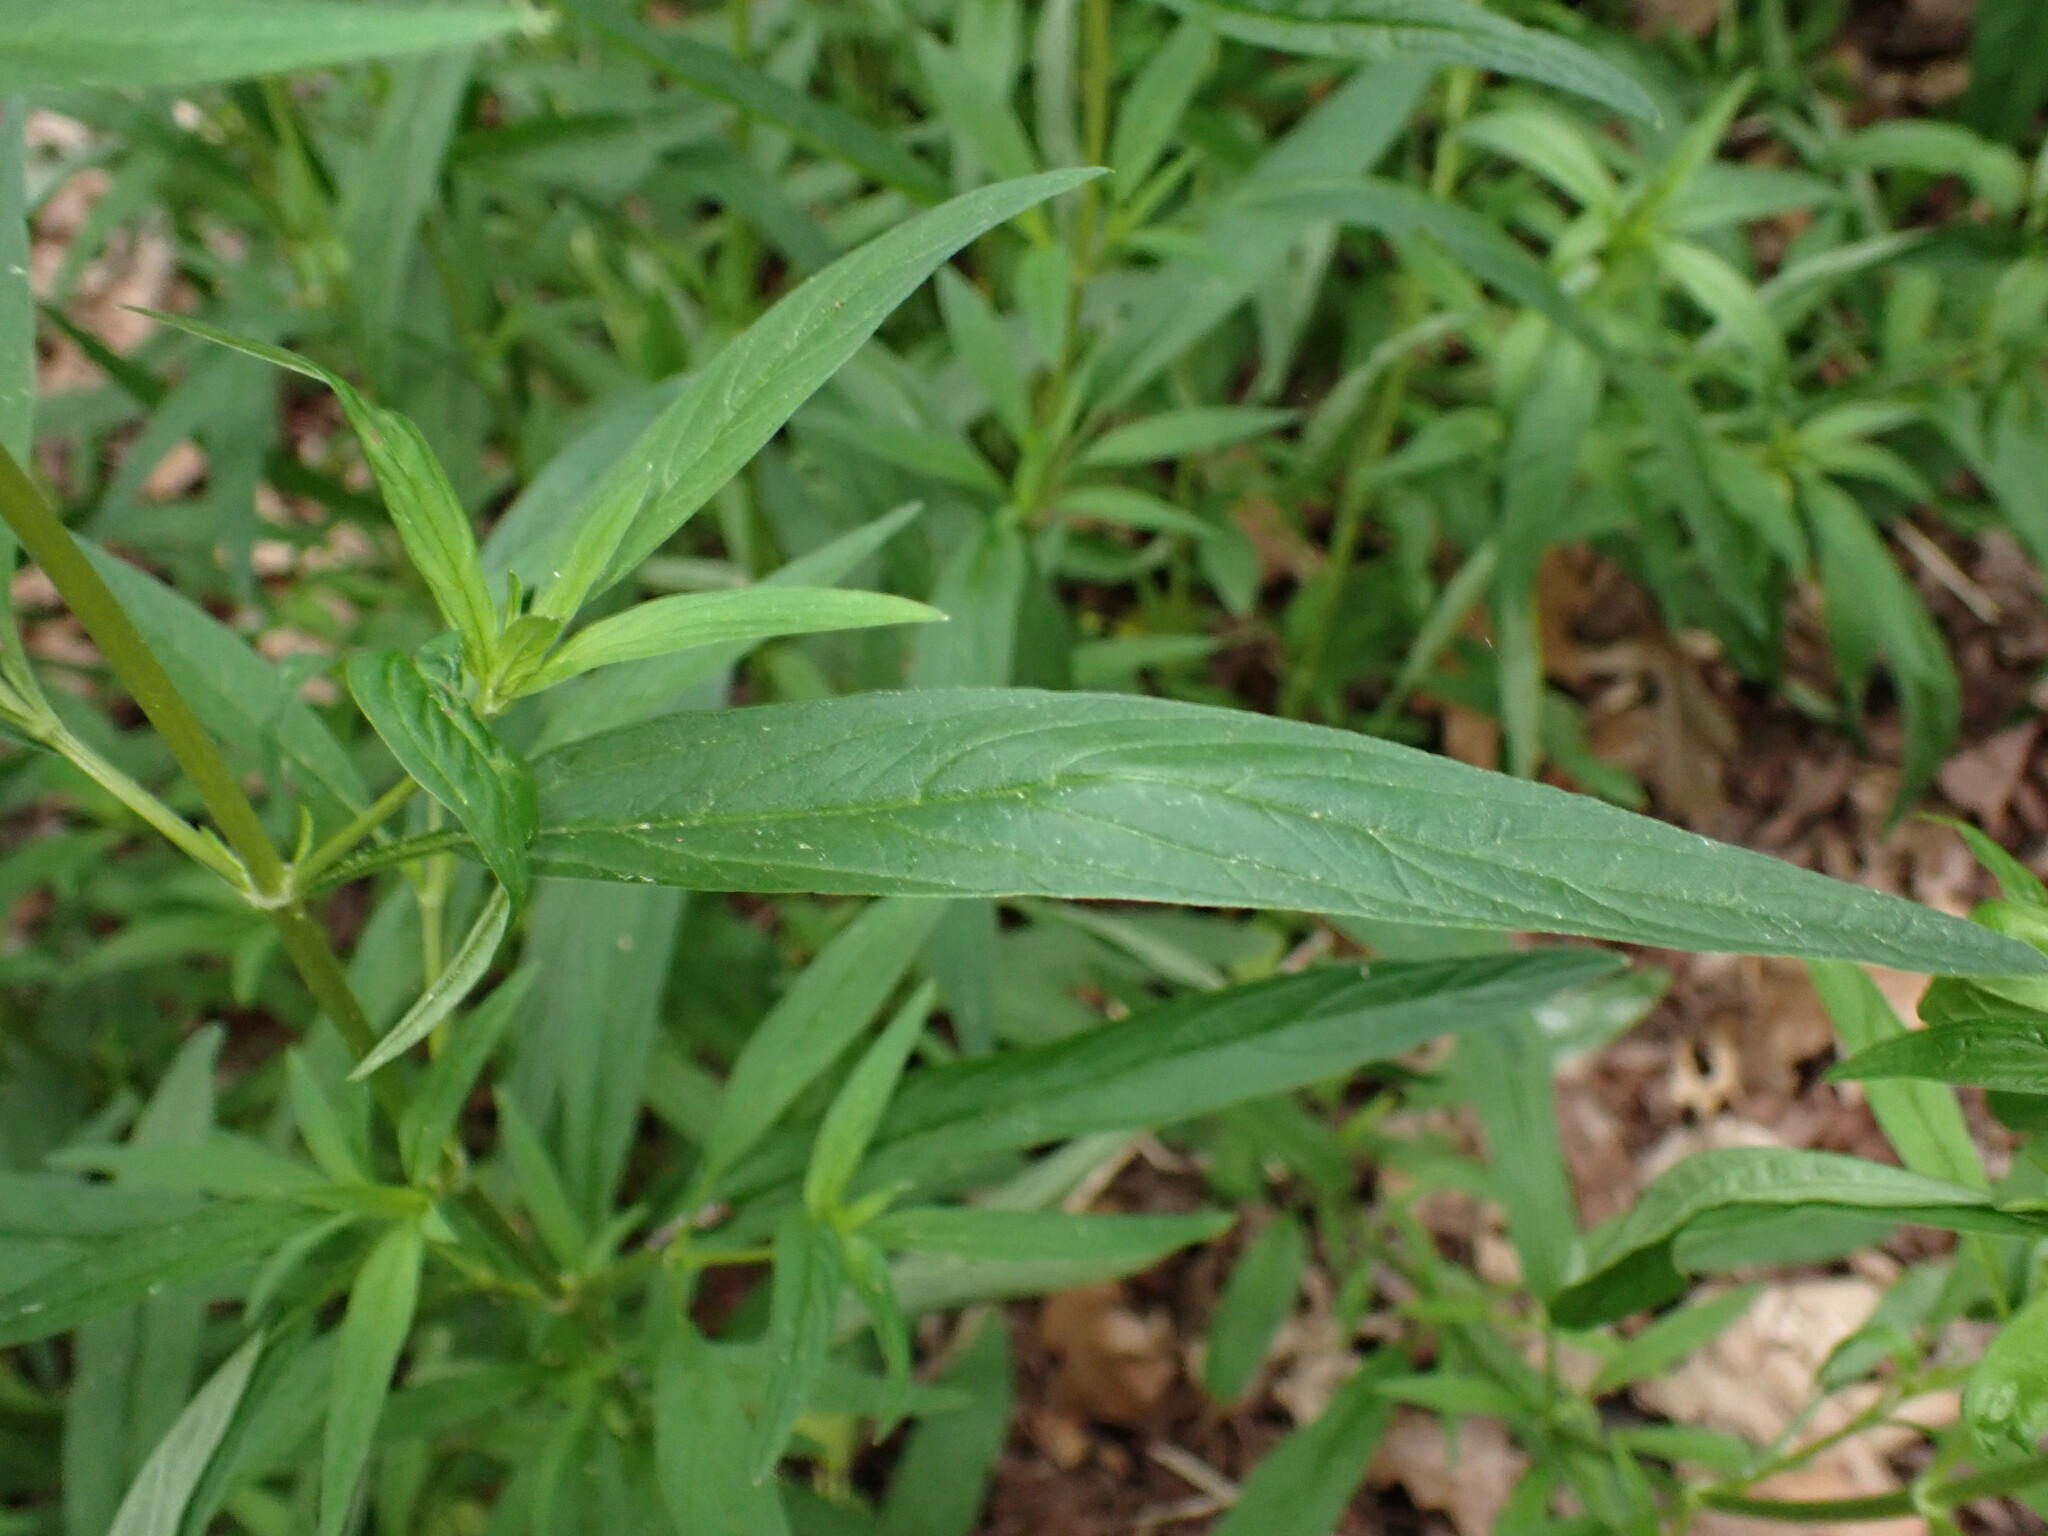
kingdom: Plantae
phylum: Tracheophyta
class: Magnoliopsida
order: Ericales
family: Primulaceae
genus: Lysimachia
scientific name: Lysimachia hybrida
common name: Lowland loosestrife
